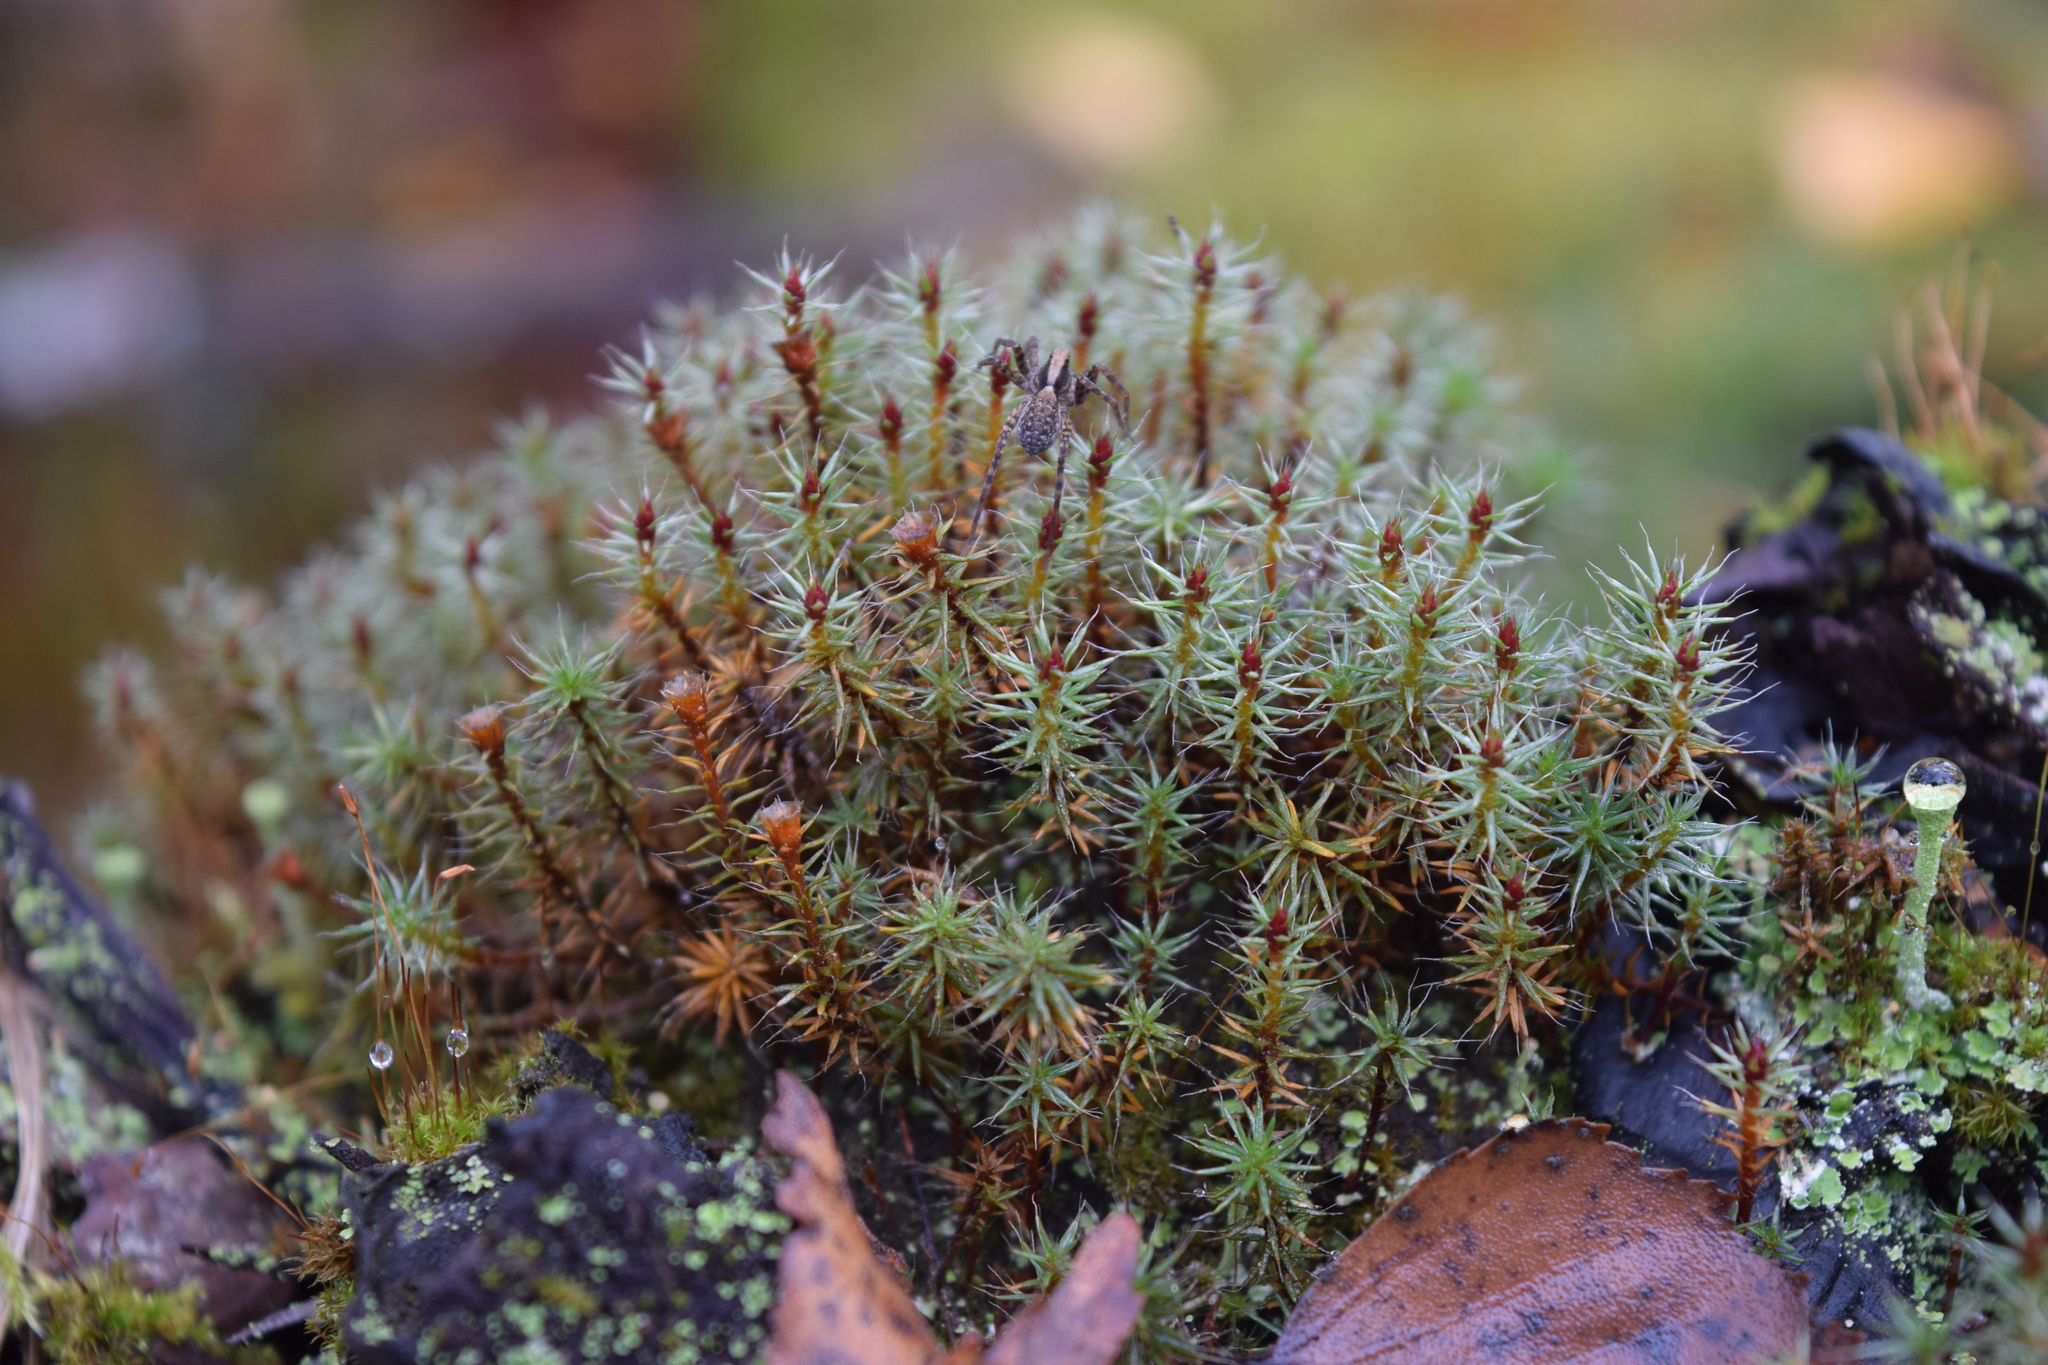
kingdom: Plantae
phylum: Bryophyta
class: Polytrichopsida
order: Polytrichales
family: Polytrichaceae
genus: Polytrichum
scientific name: Polytrichum piliferum
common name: Bristly haircap
